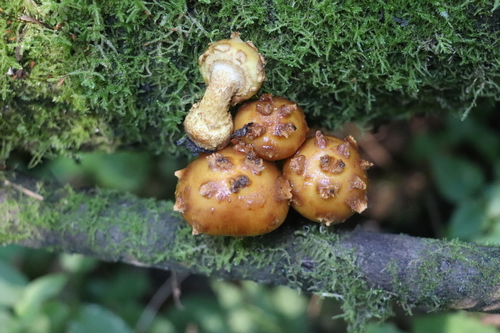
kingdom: Fungi
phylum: Basidiomycota
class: Agaricomycetes
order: Agaricales
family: Strophariaceae
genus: Pholiota
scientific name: Pholiota aurivella
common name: Golden scalycap
